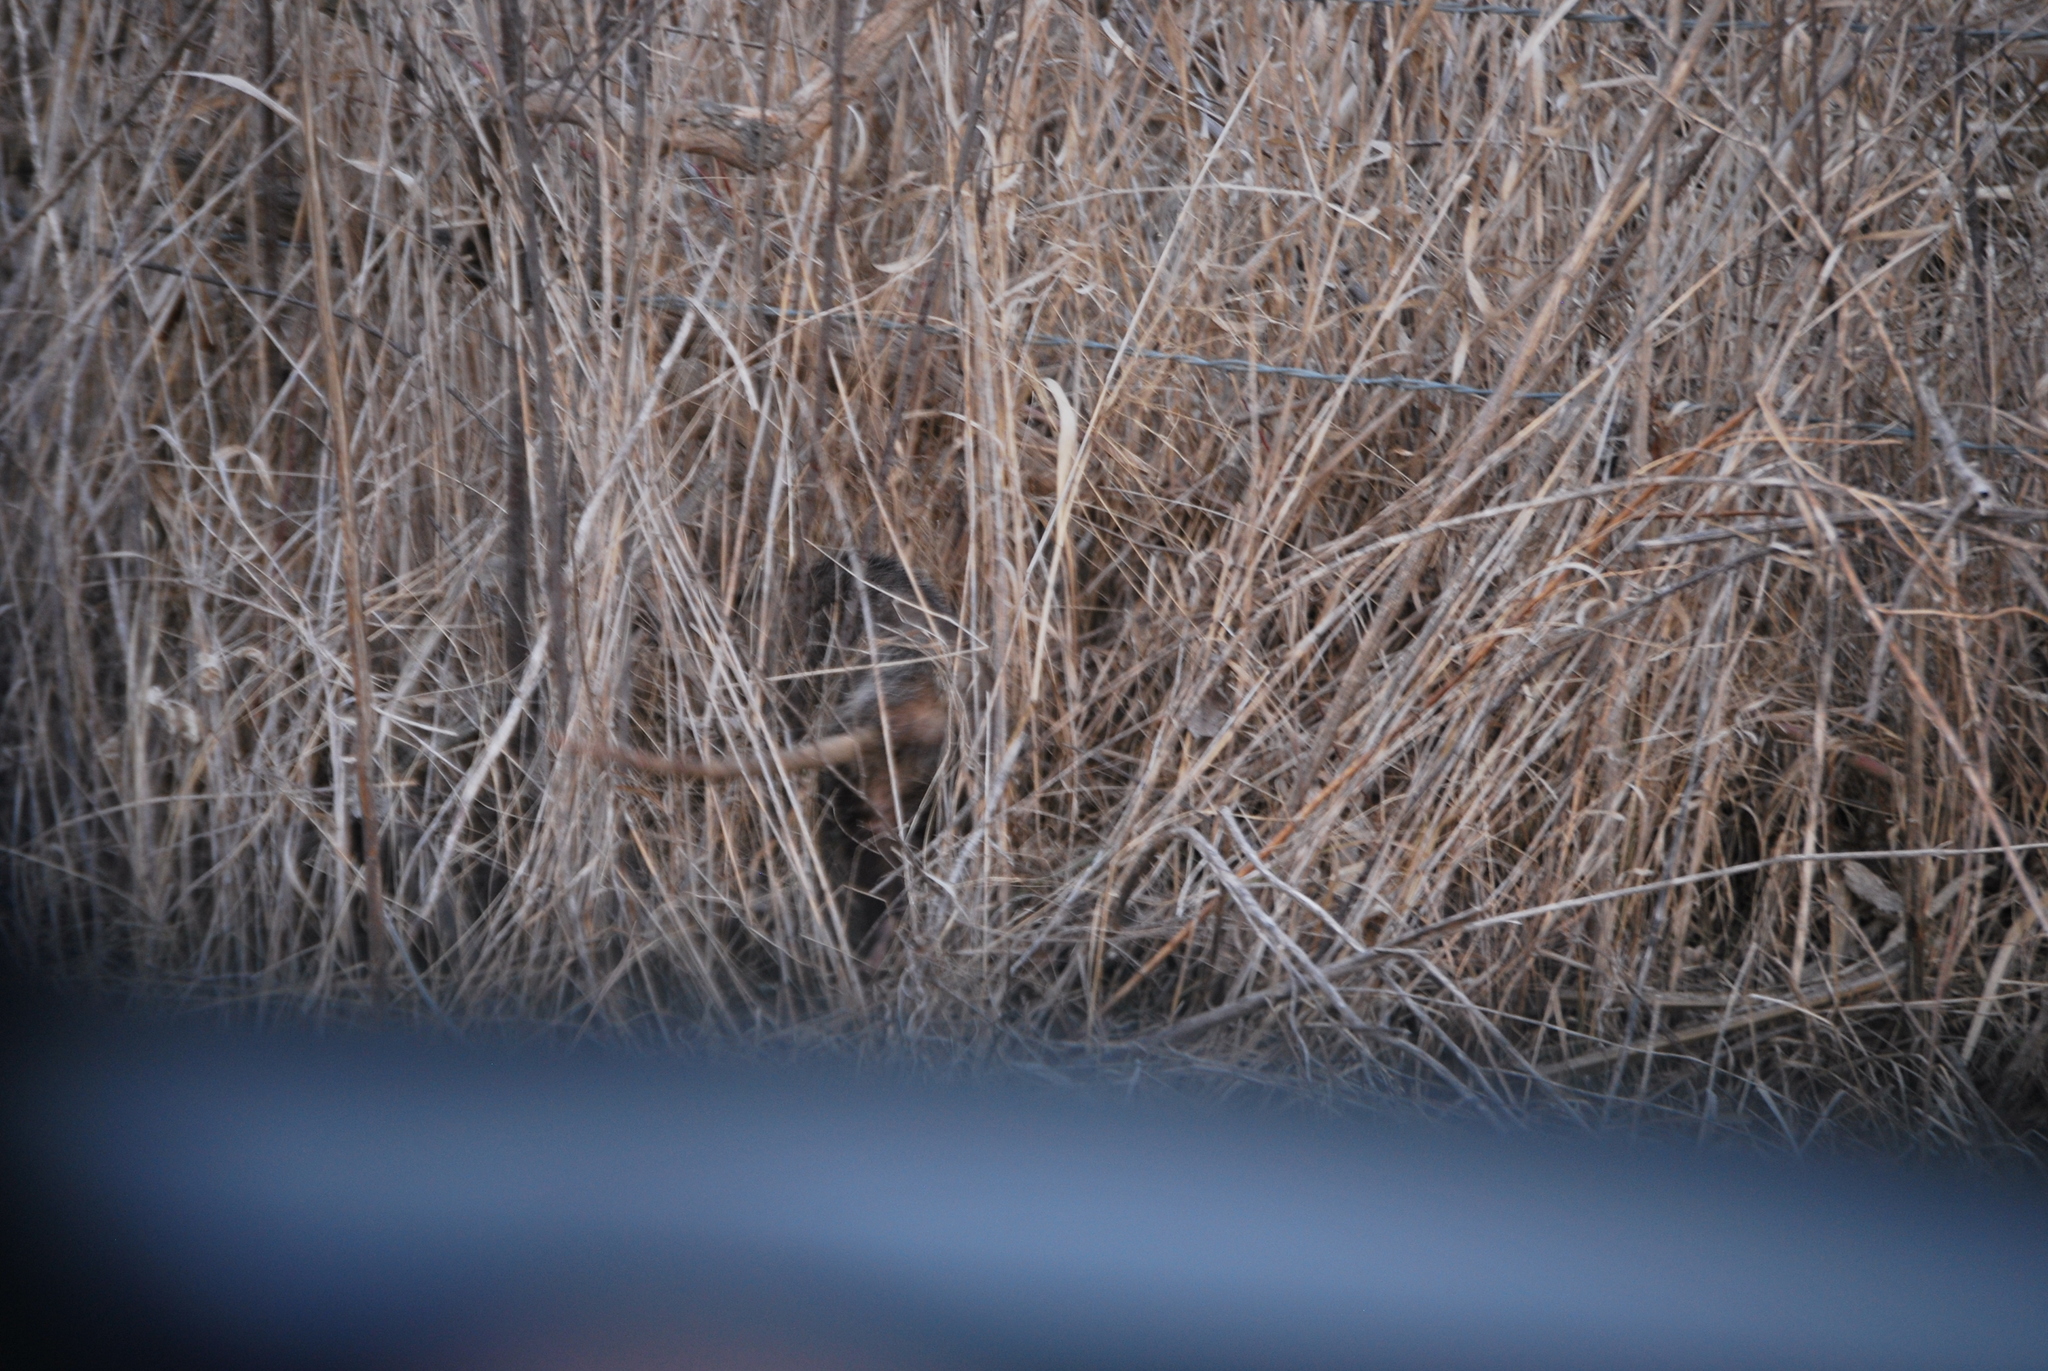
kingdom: Animalia
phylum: Chordata
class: Mammalia
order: Didelphimorphia
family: Didelphidae
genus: Didelphis
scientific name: Didelphis virginiana
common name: Virginia opossum
